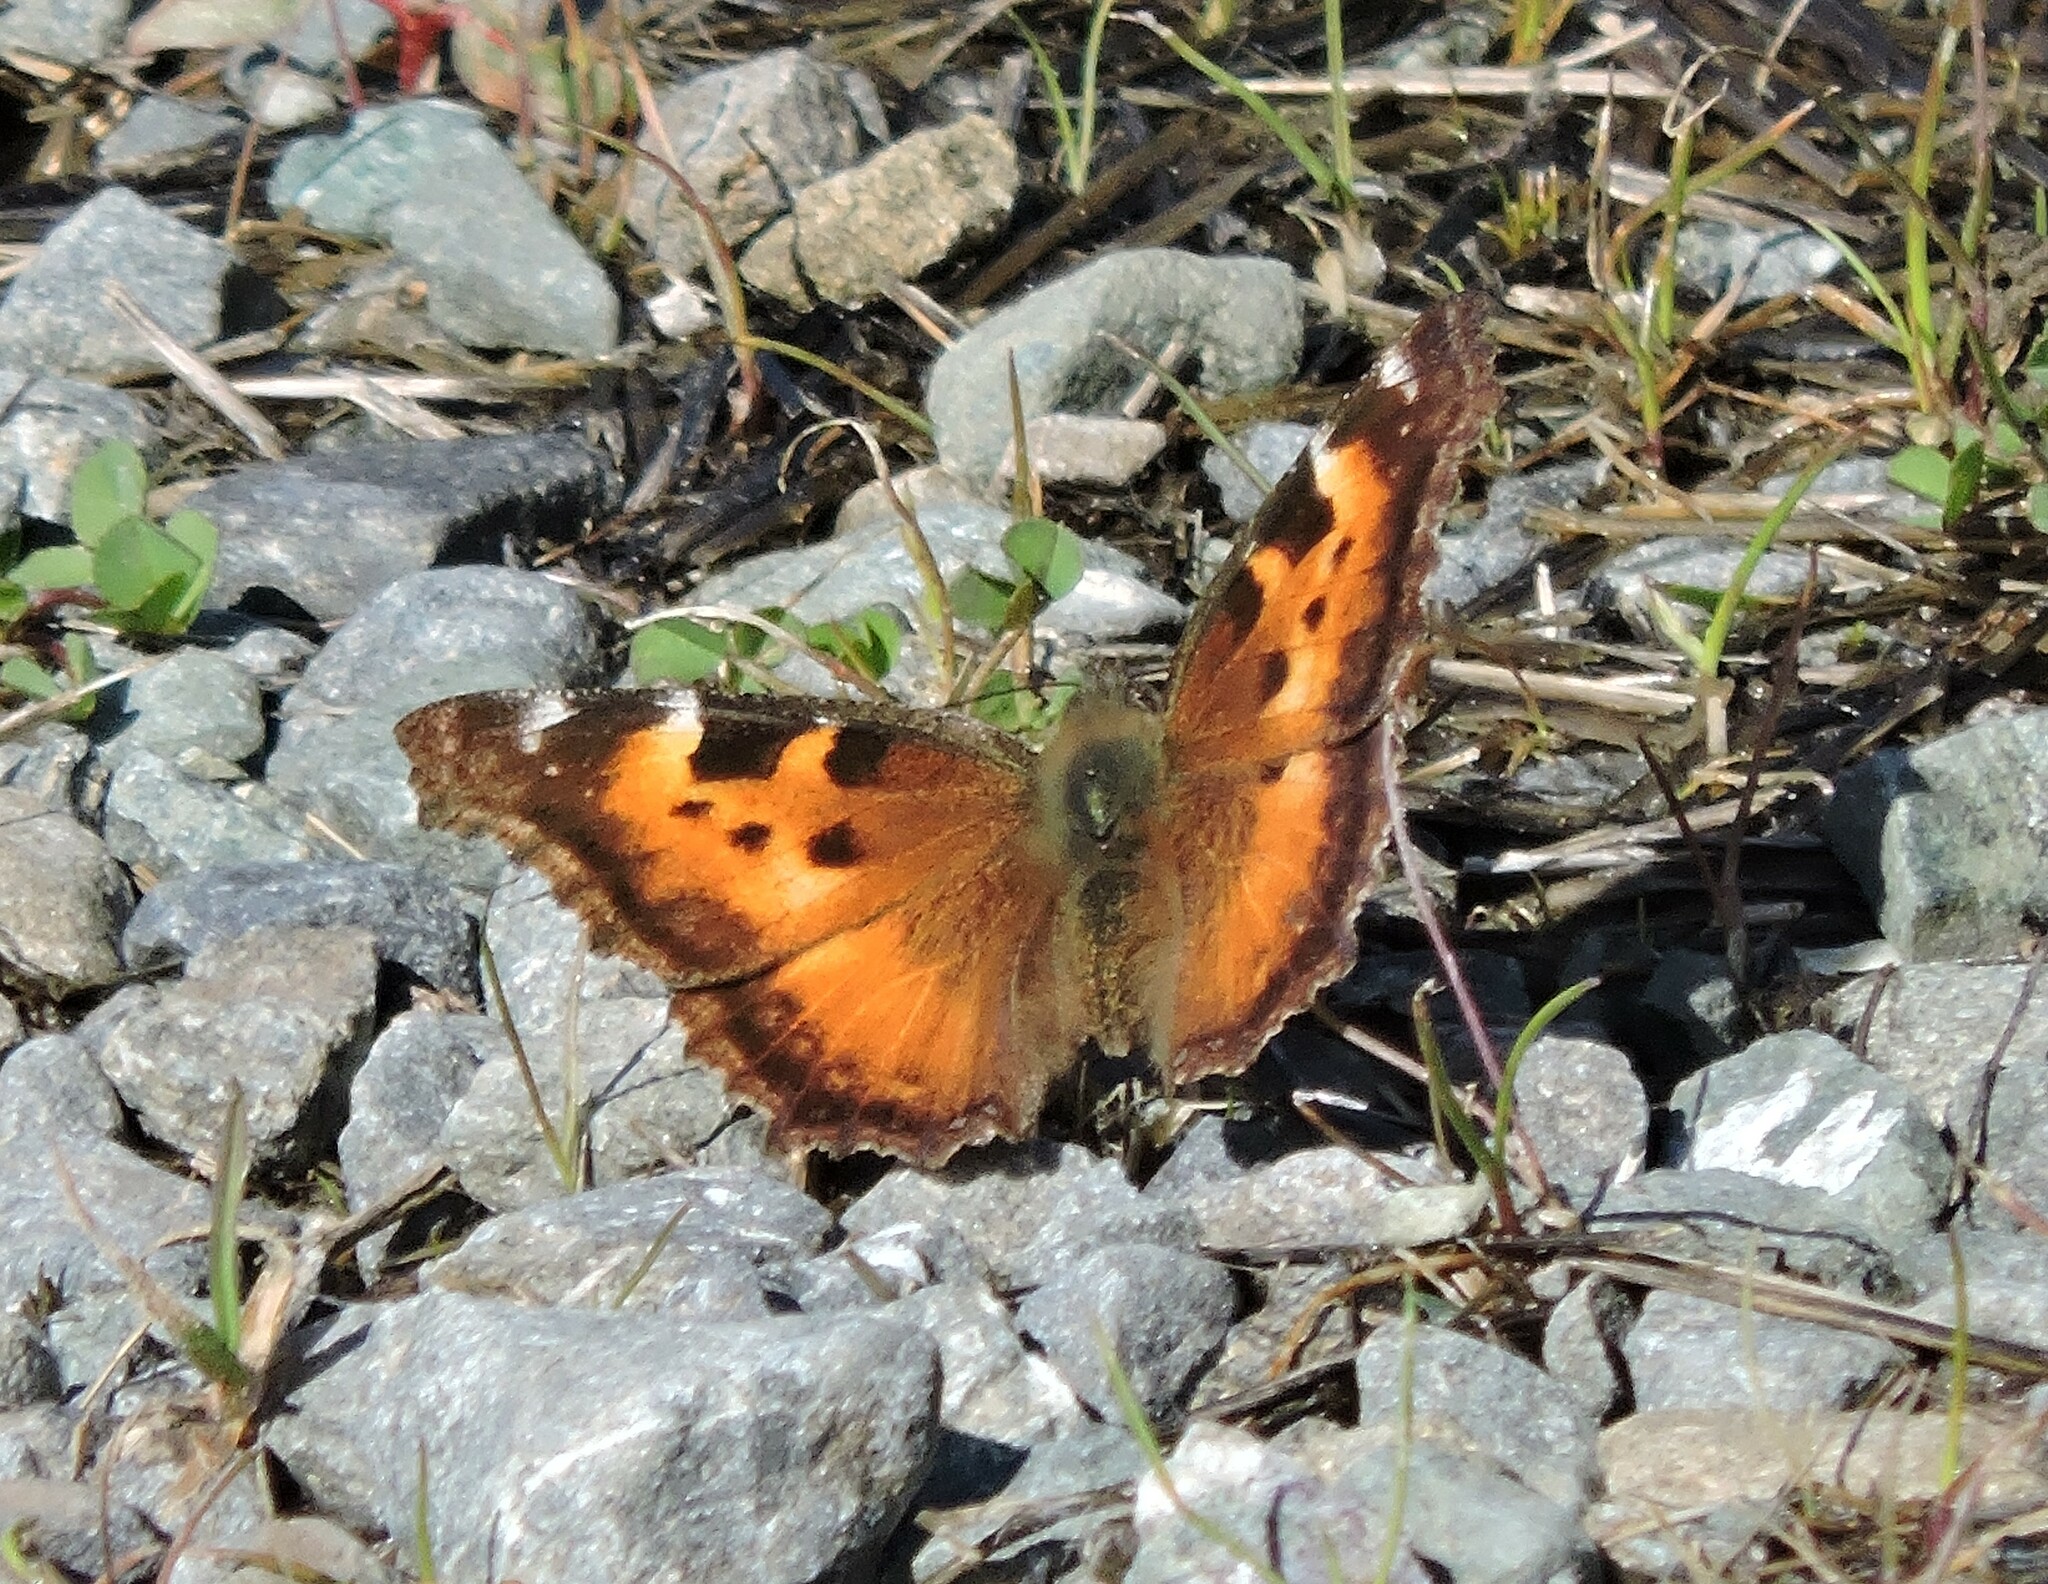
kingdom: Animalia
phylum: Arthropoda
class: Insecta
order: Lepidoptera
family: Nymphalidae
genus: Nymphalis
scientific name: Nymphalis californica
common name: California tortoiseshell
